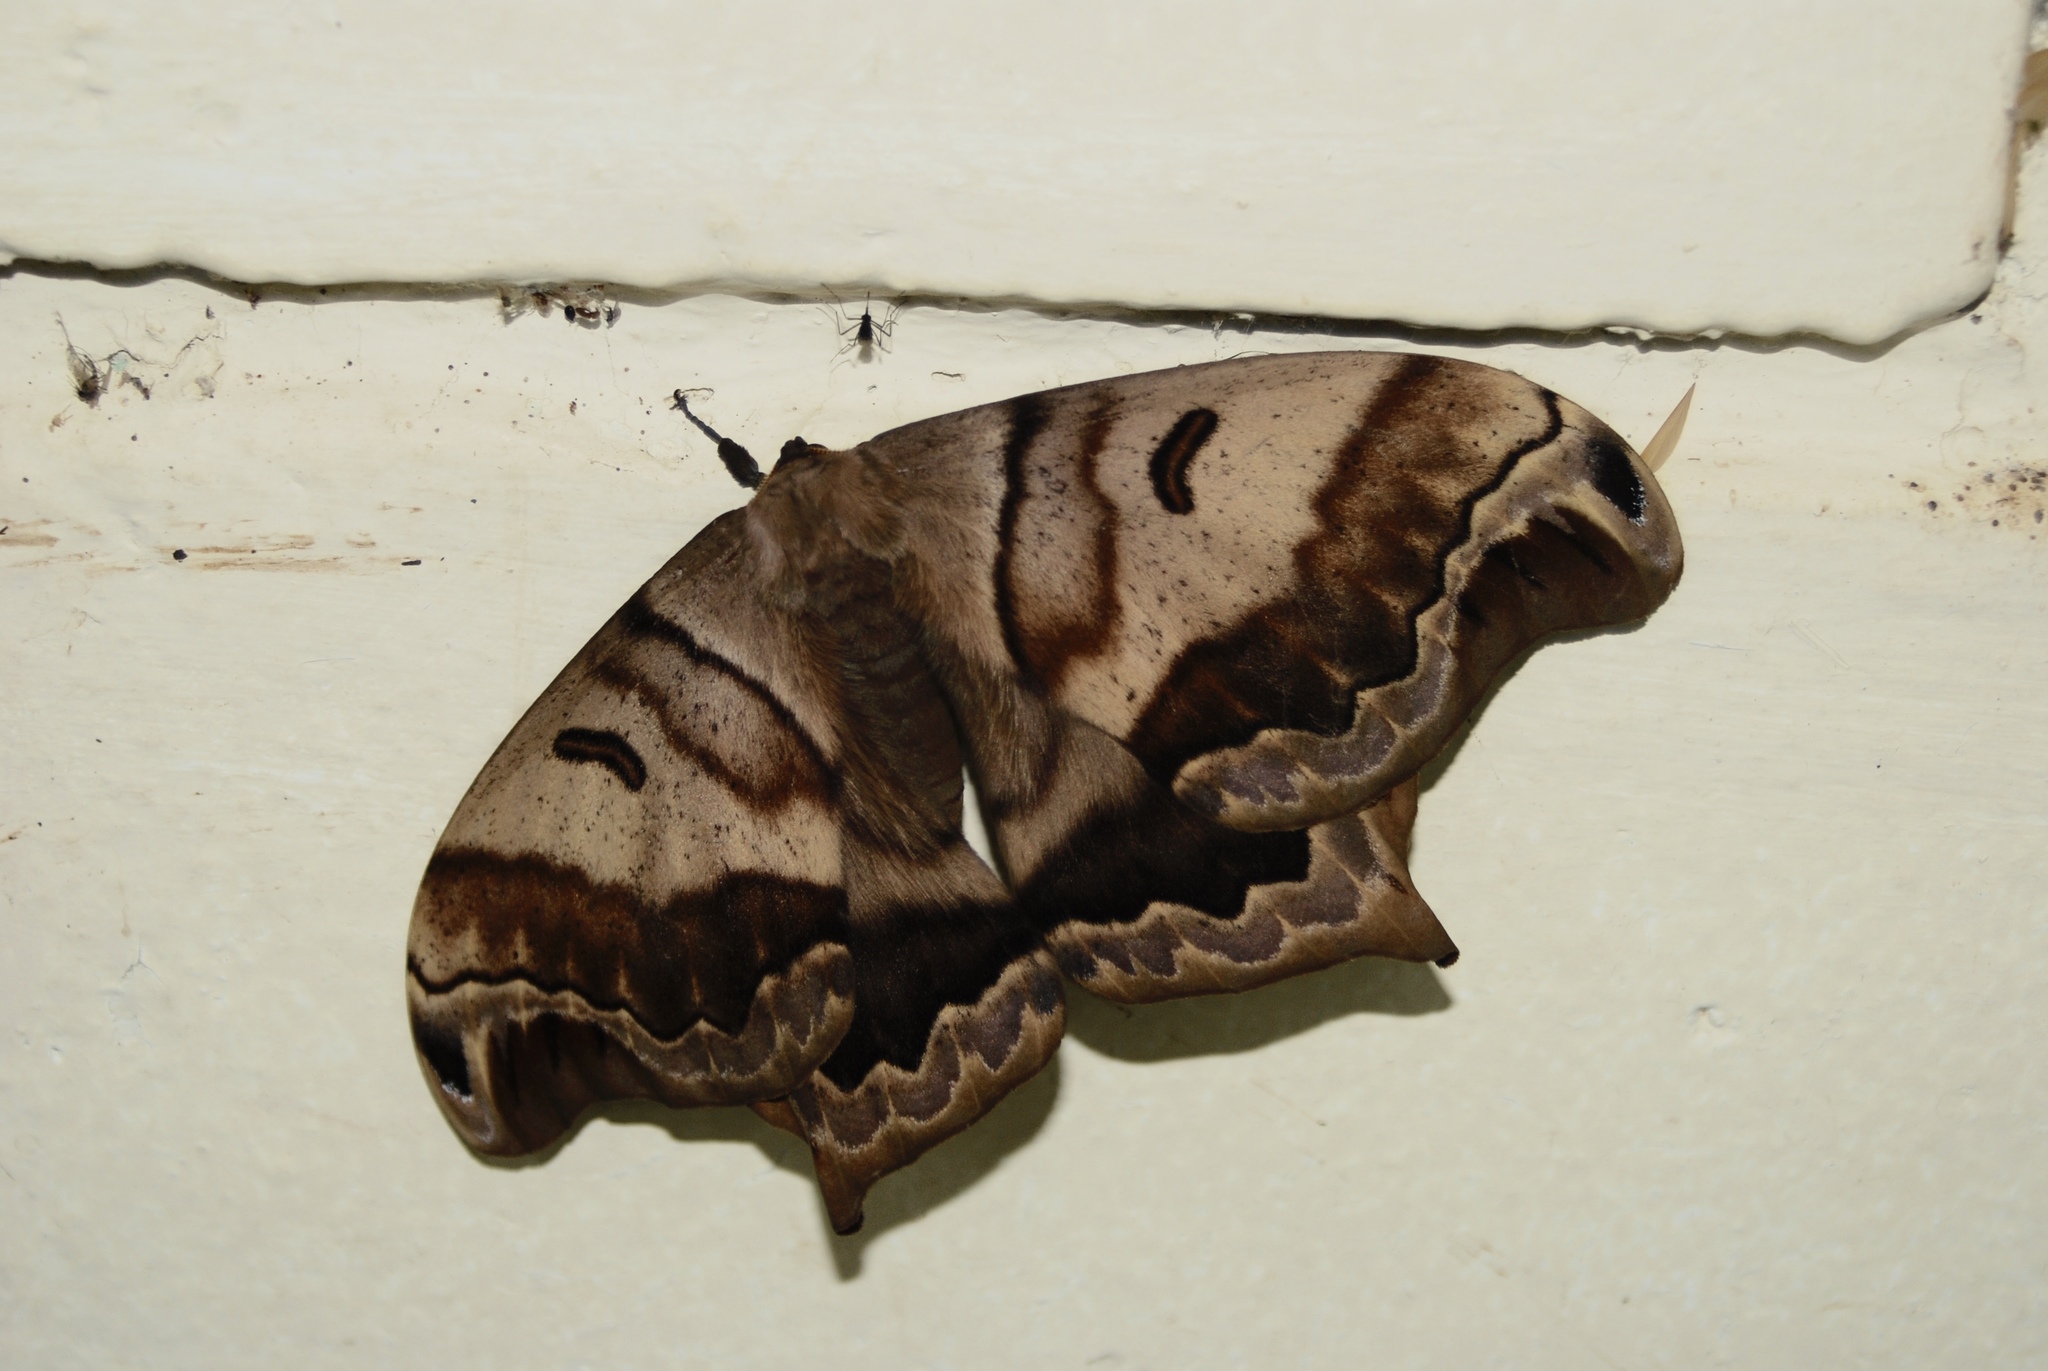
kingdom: Animalia
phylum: Arthropoda
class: Insecta
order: Lepidoptera
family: Saturniidae
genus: Caio
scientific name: Caio championi
